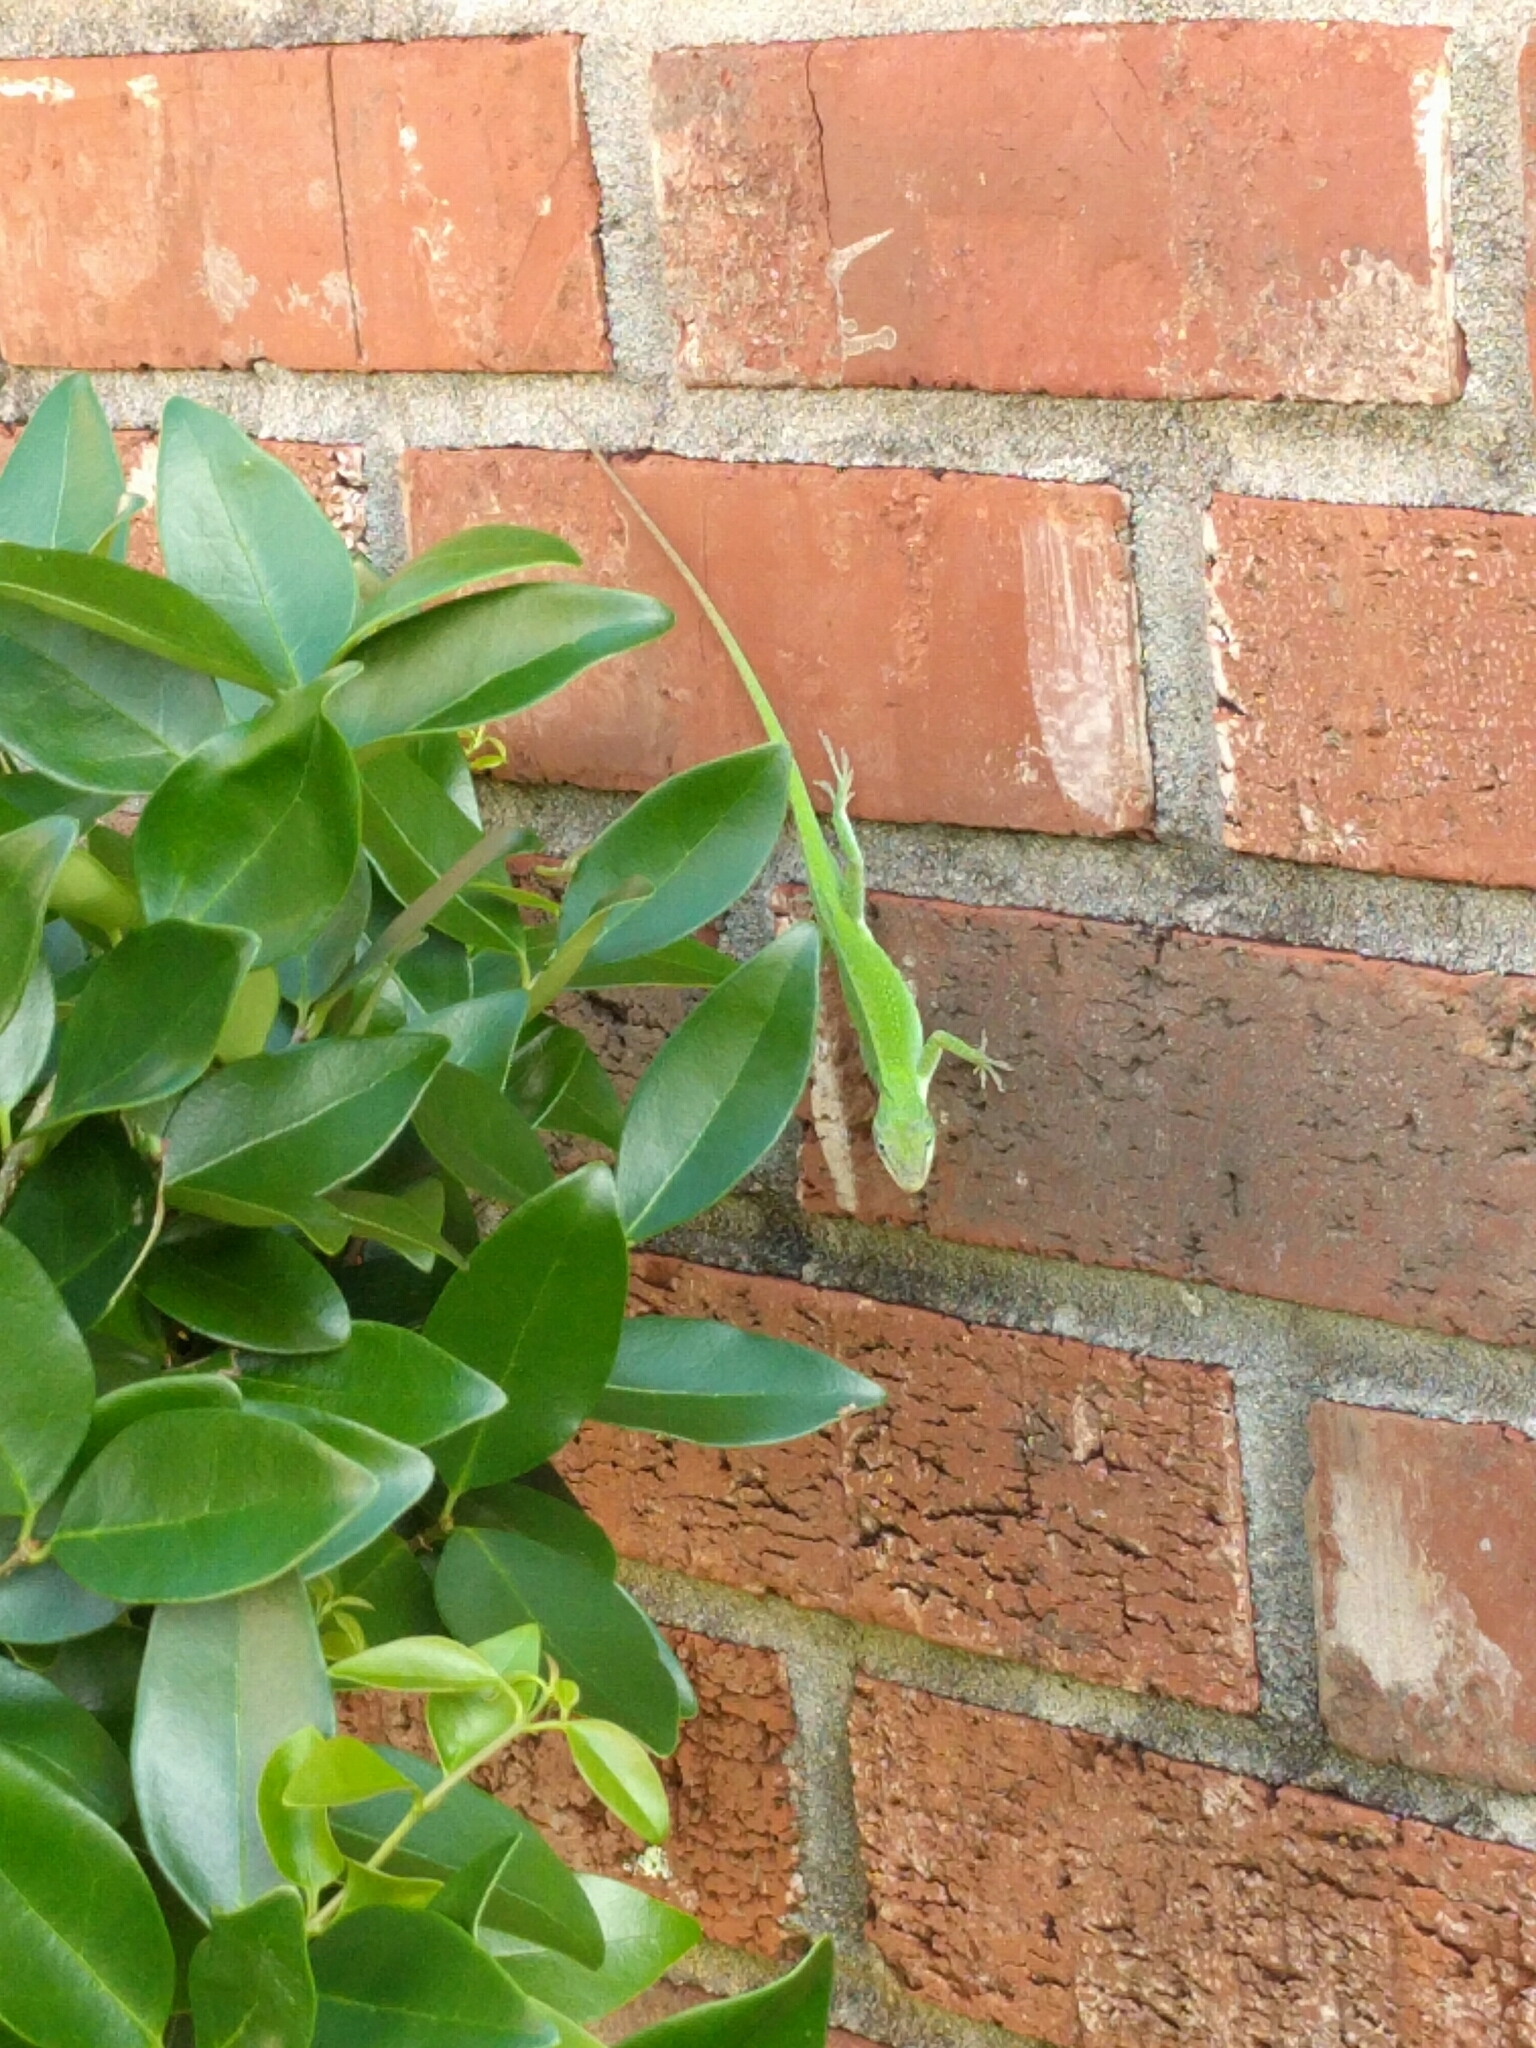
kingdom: Animalia
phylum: Chordata
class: Squamata
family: Dactyloidae
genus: Anolis
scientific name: Anolis carolinensis
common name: Green anole
